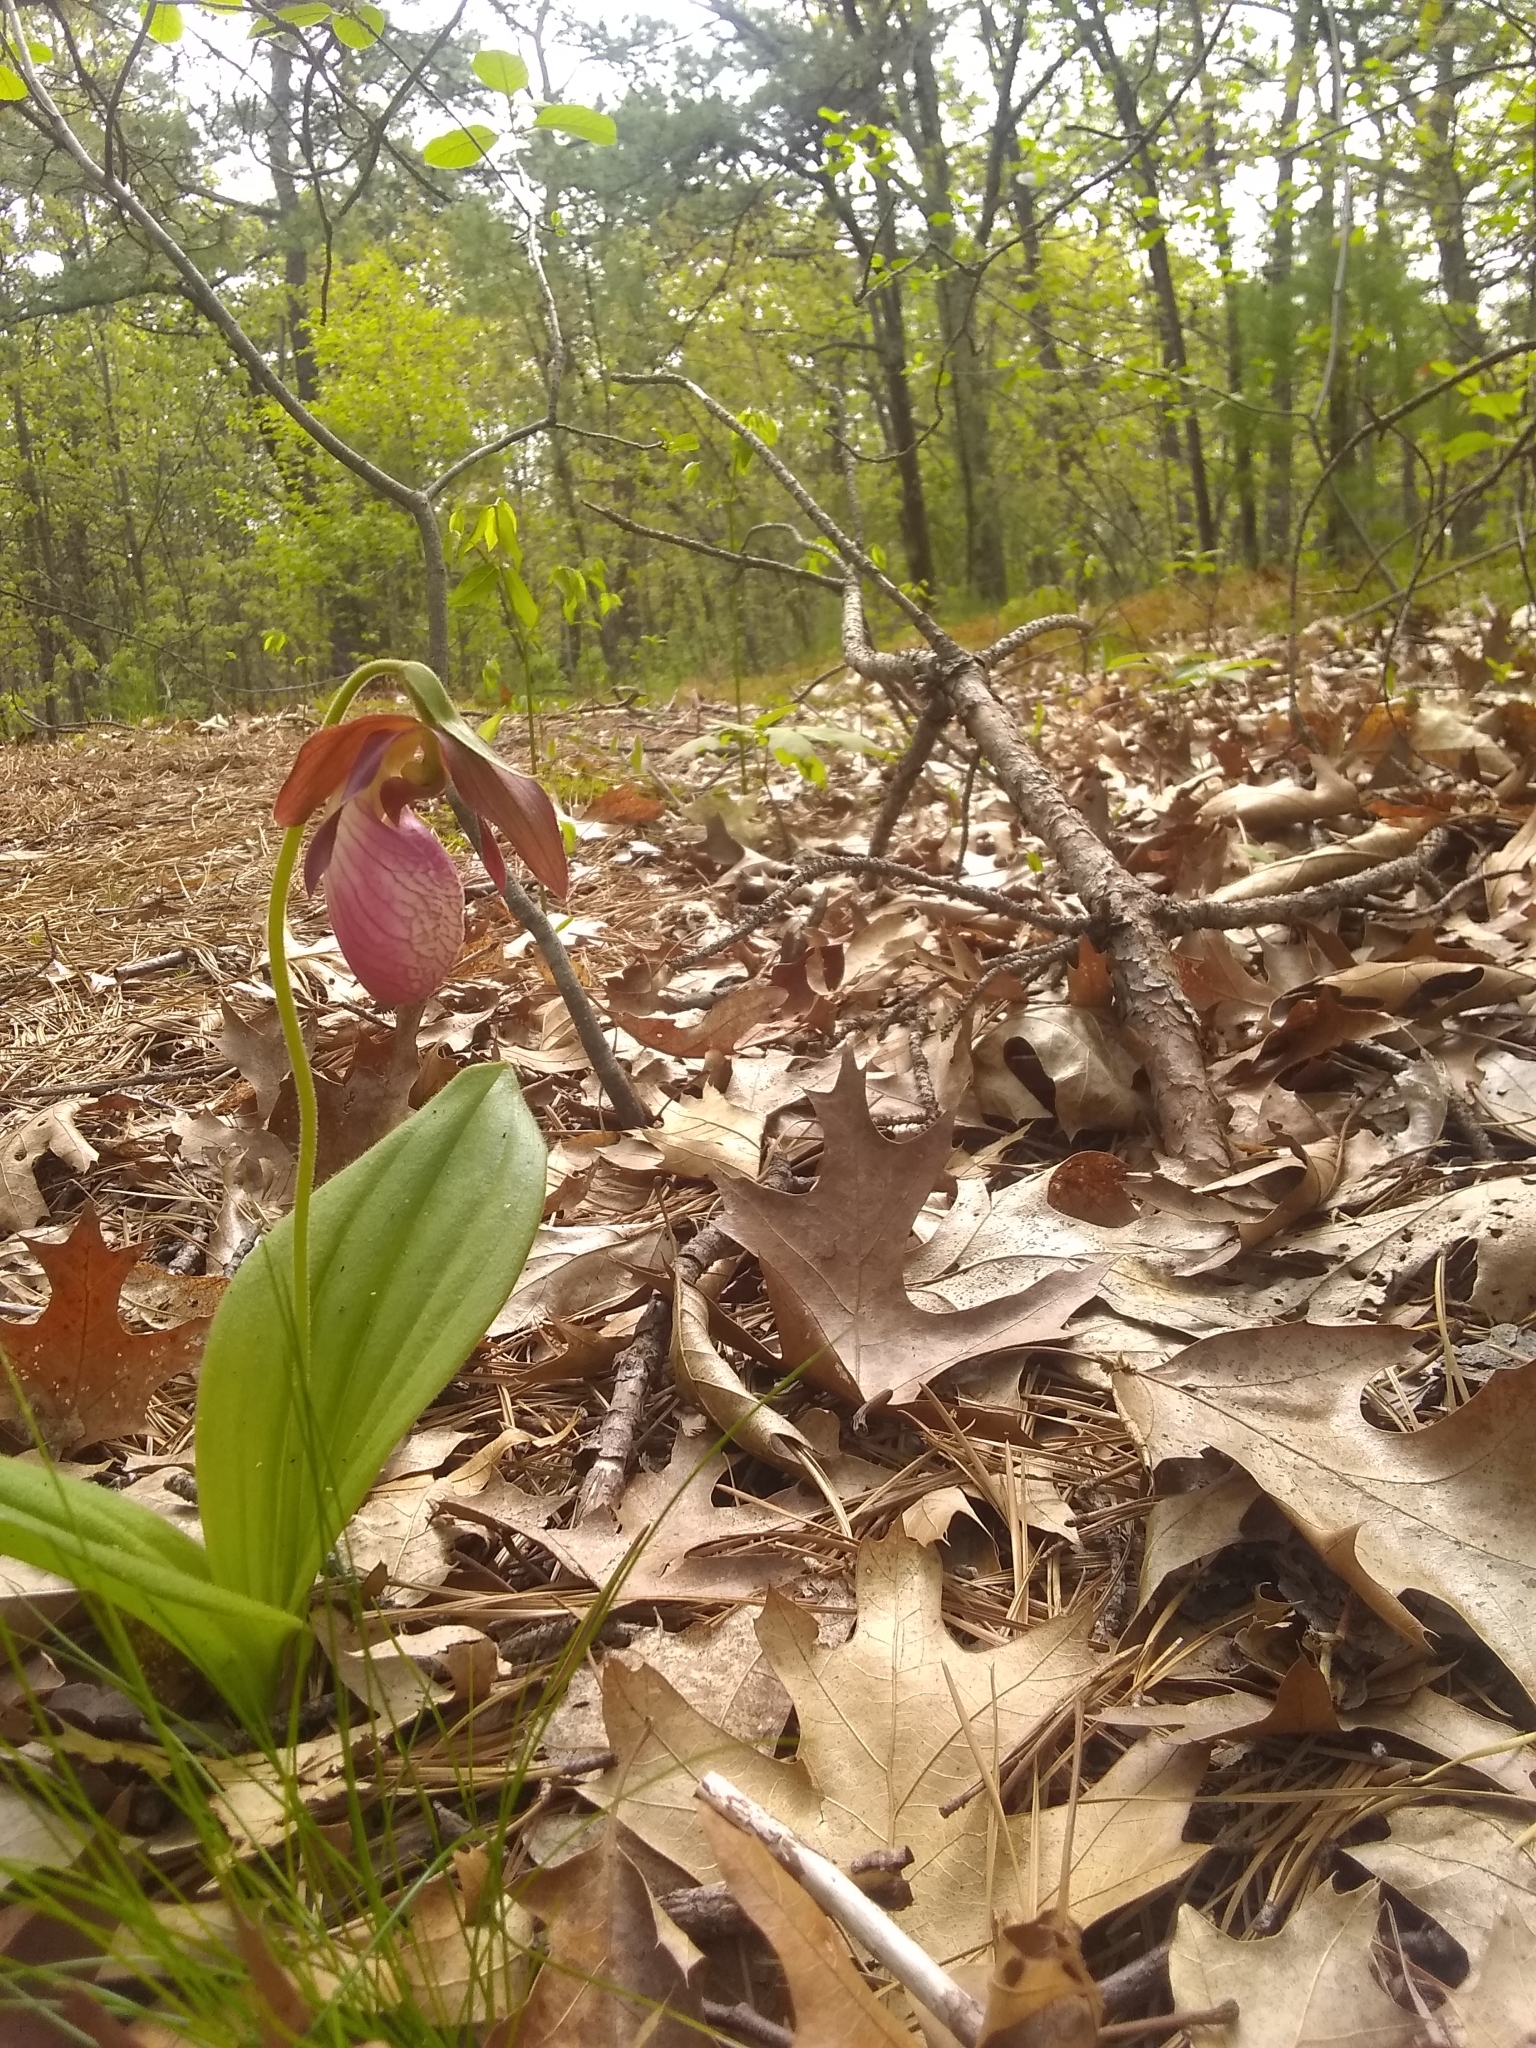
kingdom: Plantae
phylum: Tracheophyta
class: Liliopsida
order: Asparagales
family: Orchidaceae
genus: Cypripedium
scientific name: Cypripedium acaule
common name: Pink lady's-slipper
